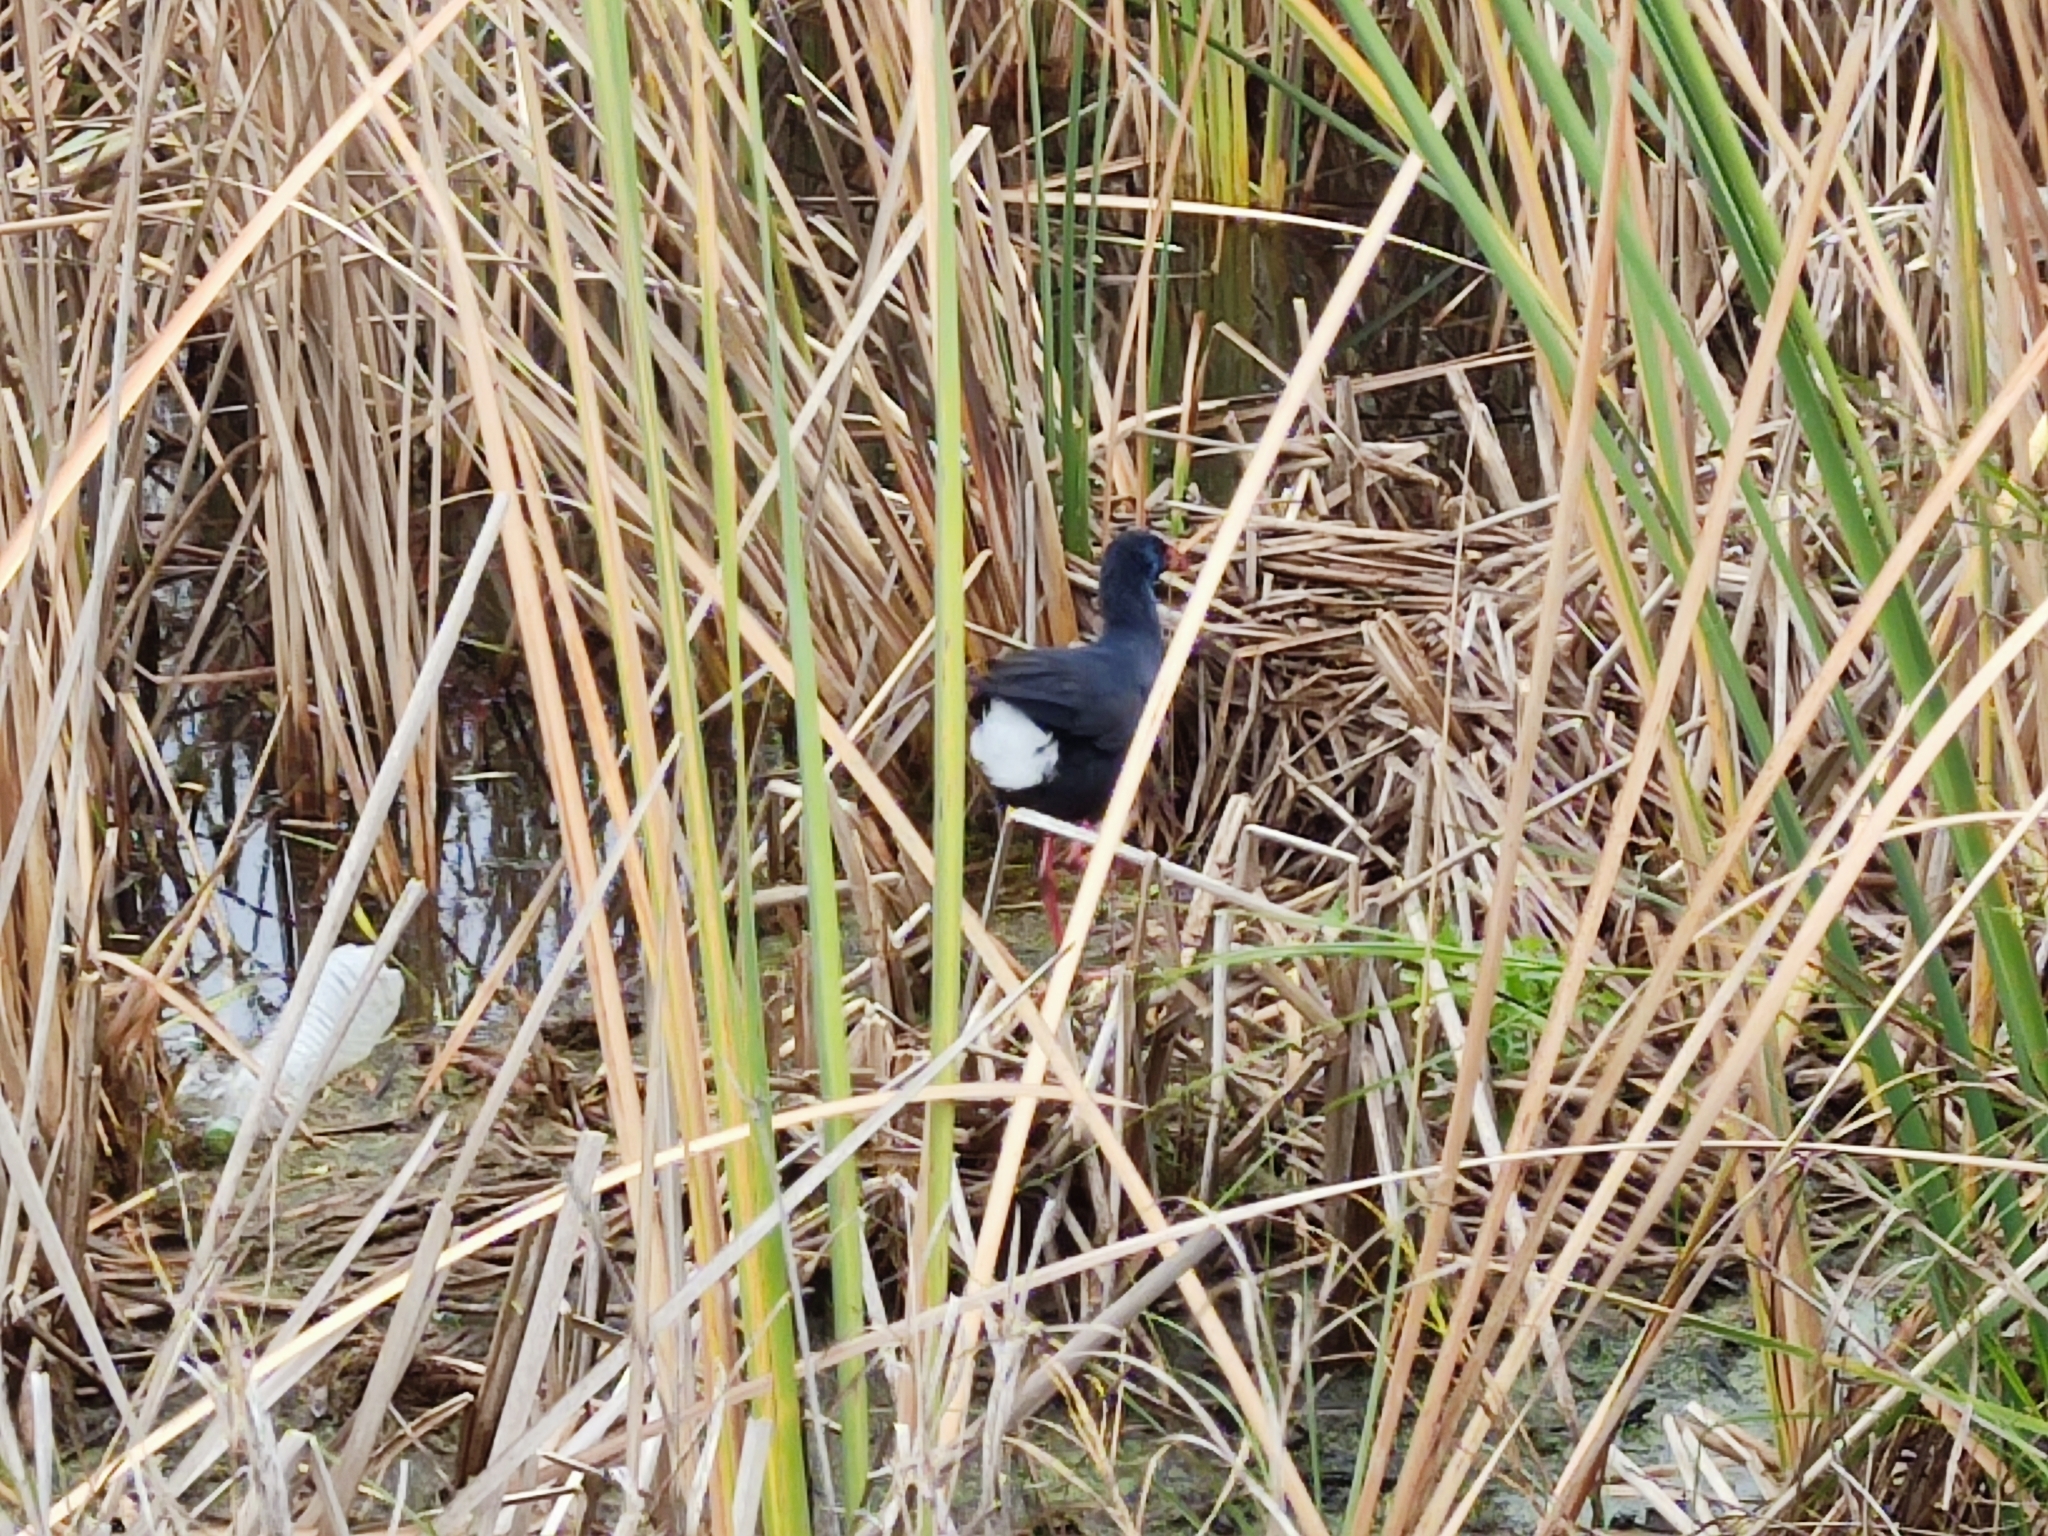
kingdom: Animalia
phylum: Chordata
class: Aves
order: Gruiformes
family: Rallidae
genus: Porphyrio
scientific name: Porphyrio porphyrio
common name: Purple swamphen
